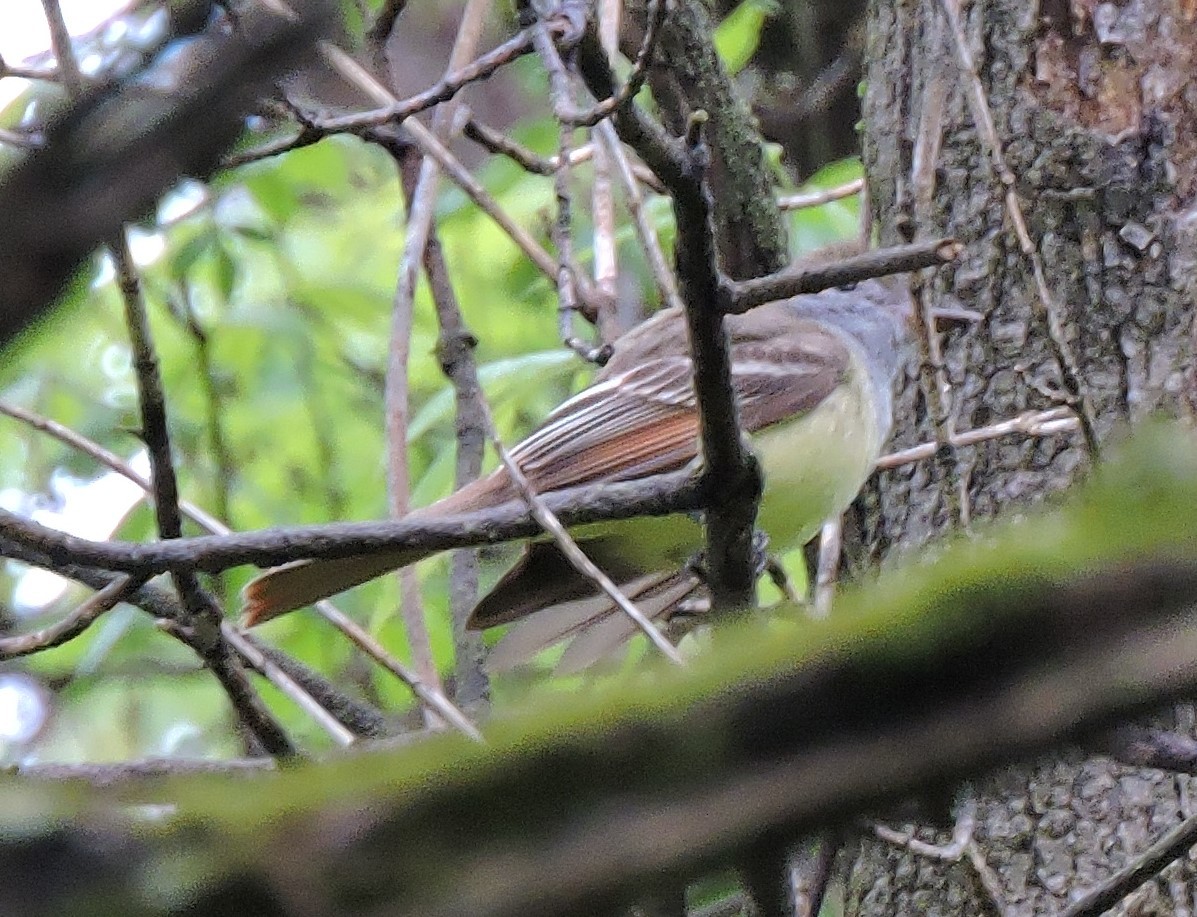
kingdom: Animalia
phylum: Chordata
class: Aves
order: Passeriformes
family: Tyrannidae
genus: Myiarchus
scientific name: Myiarchus crinitus
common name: Great crested flycatcher
